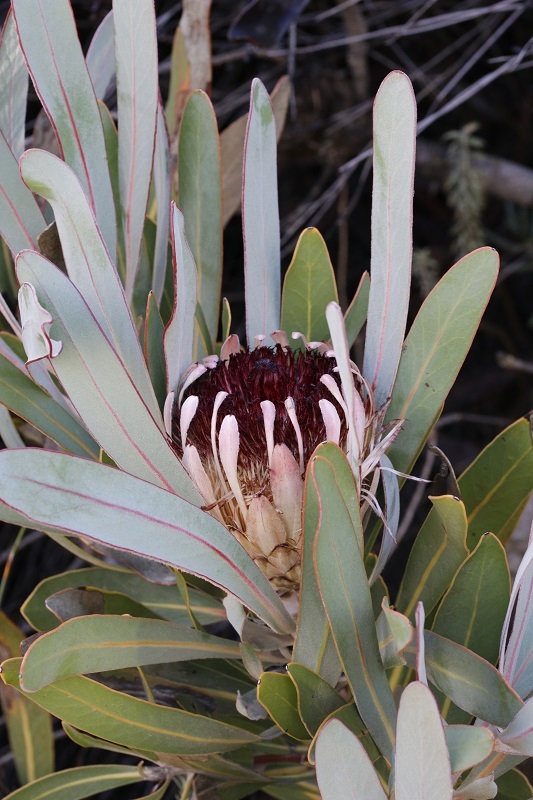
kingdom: Plantae
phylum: Tracheophyta
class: Magnoliopsida
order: Proteales
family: Proteaceae
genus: Protea
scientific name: Protea lorifolia
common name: Strap-leaved protea
